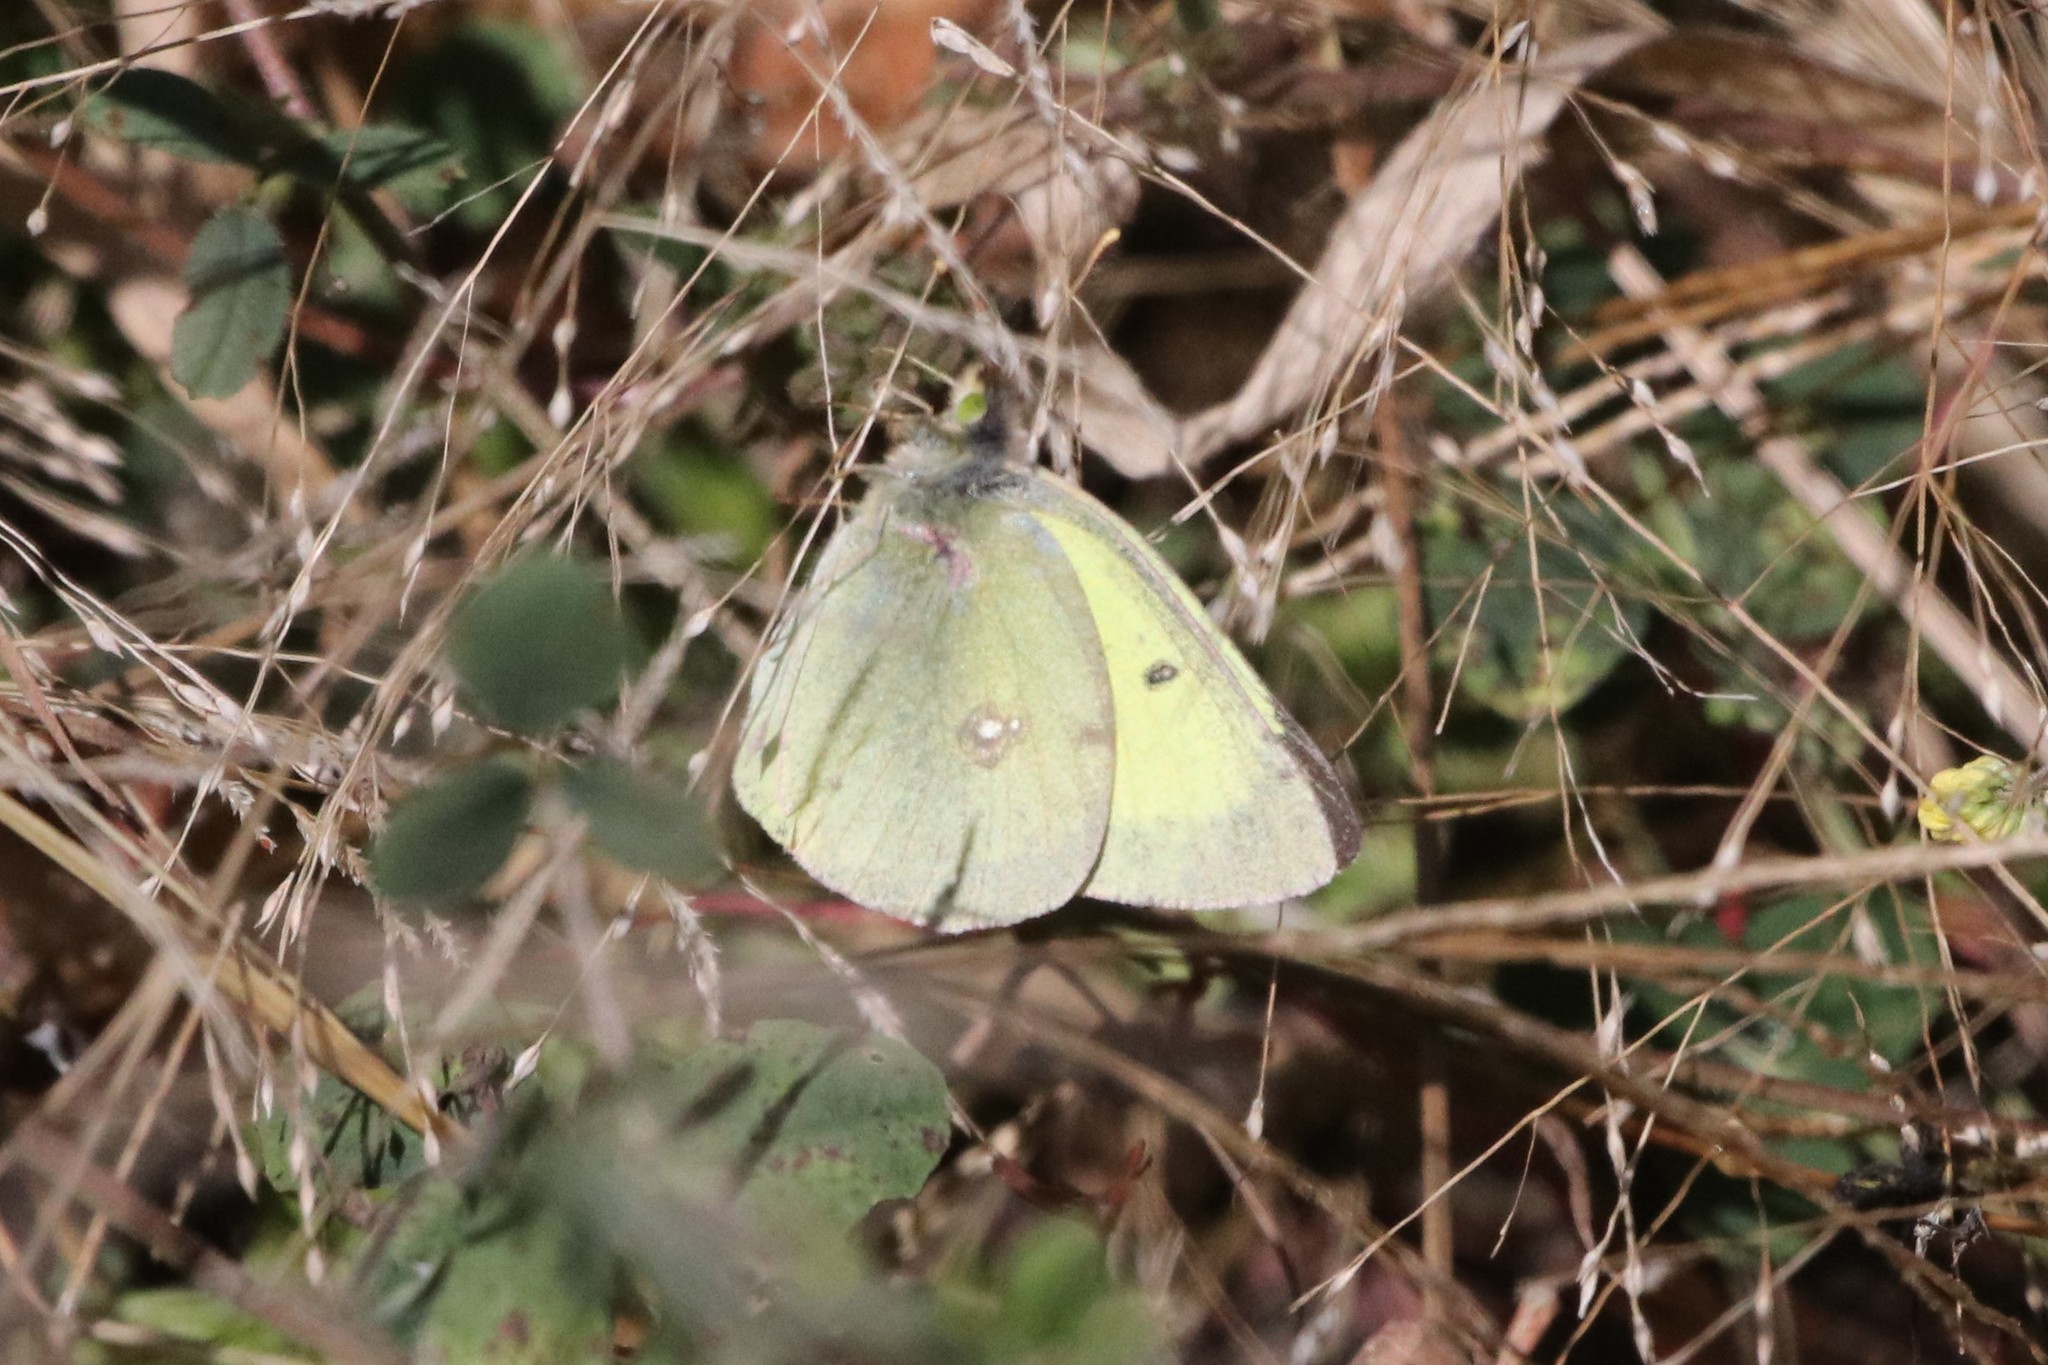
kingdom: Animalia
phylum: Arthropoda
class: Insecta
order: Lepidoptera
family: Pieridae
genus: Colias
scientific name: Colias philodice
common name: Clouded sulphur
